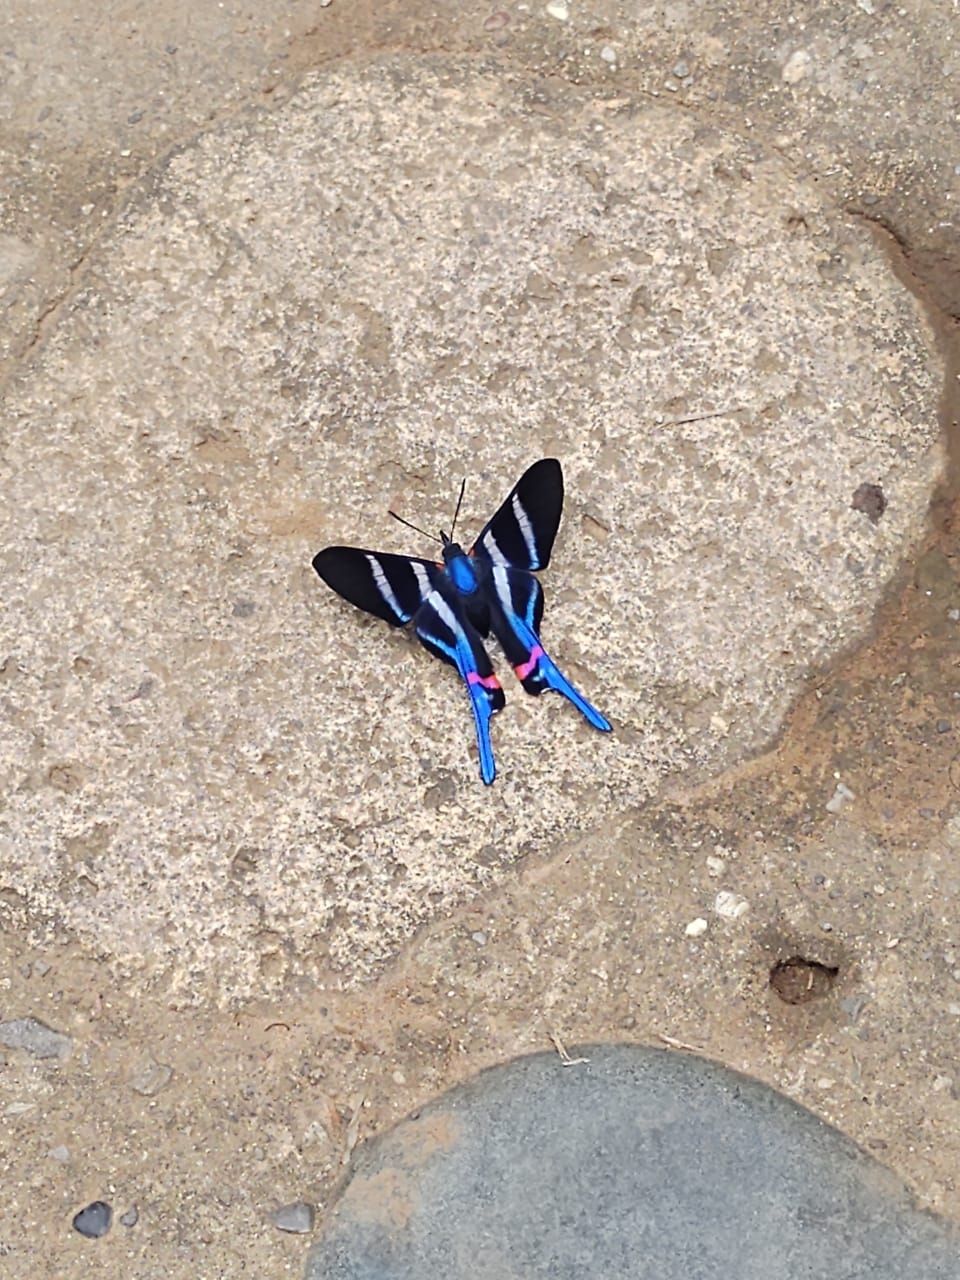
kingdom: Animalia
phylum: Arthropoda
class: Insecta
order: Lepidoptera
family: Riodinidae
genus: Rhetus
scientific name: Rhetus arcius
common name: Long-tailed metalmark
